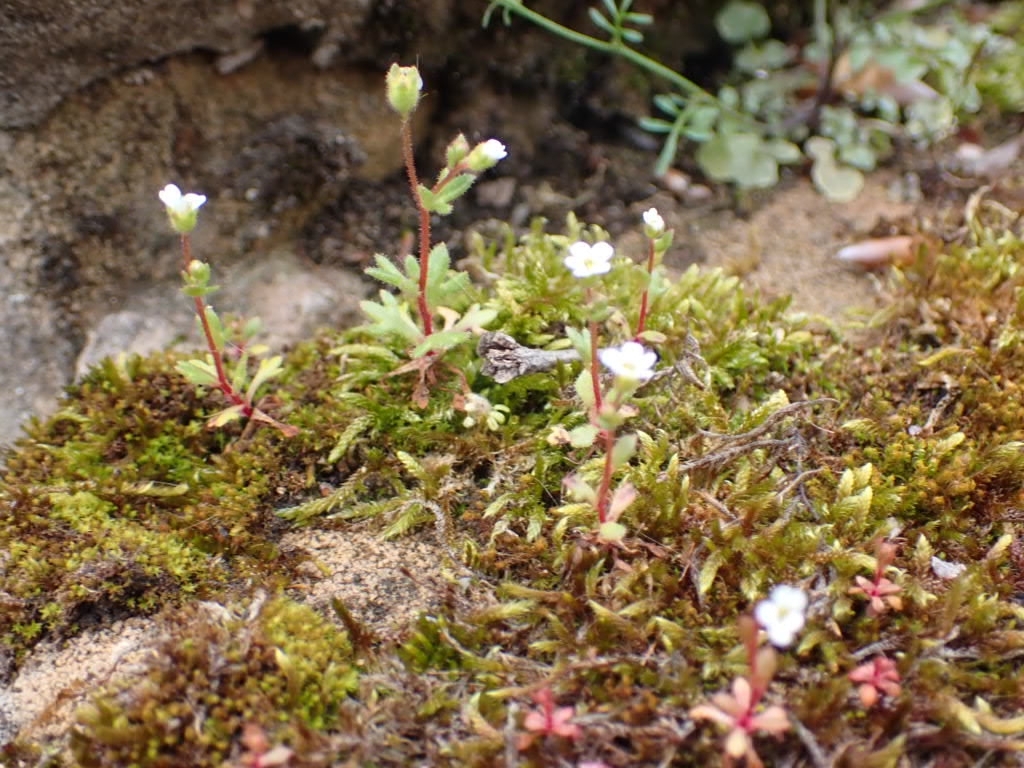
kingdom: Plantae
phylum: Tracheophyta
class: Magnoliopsida
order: Saxifragales
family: Saxifragaceae
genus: Saxifraga
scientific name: Saxifraga tridactylites
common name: Rue-leaved saxifrage
